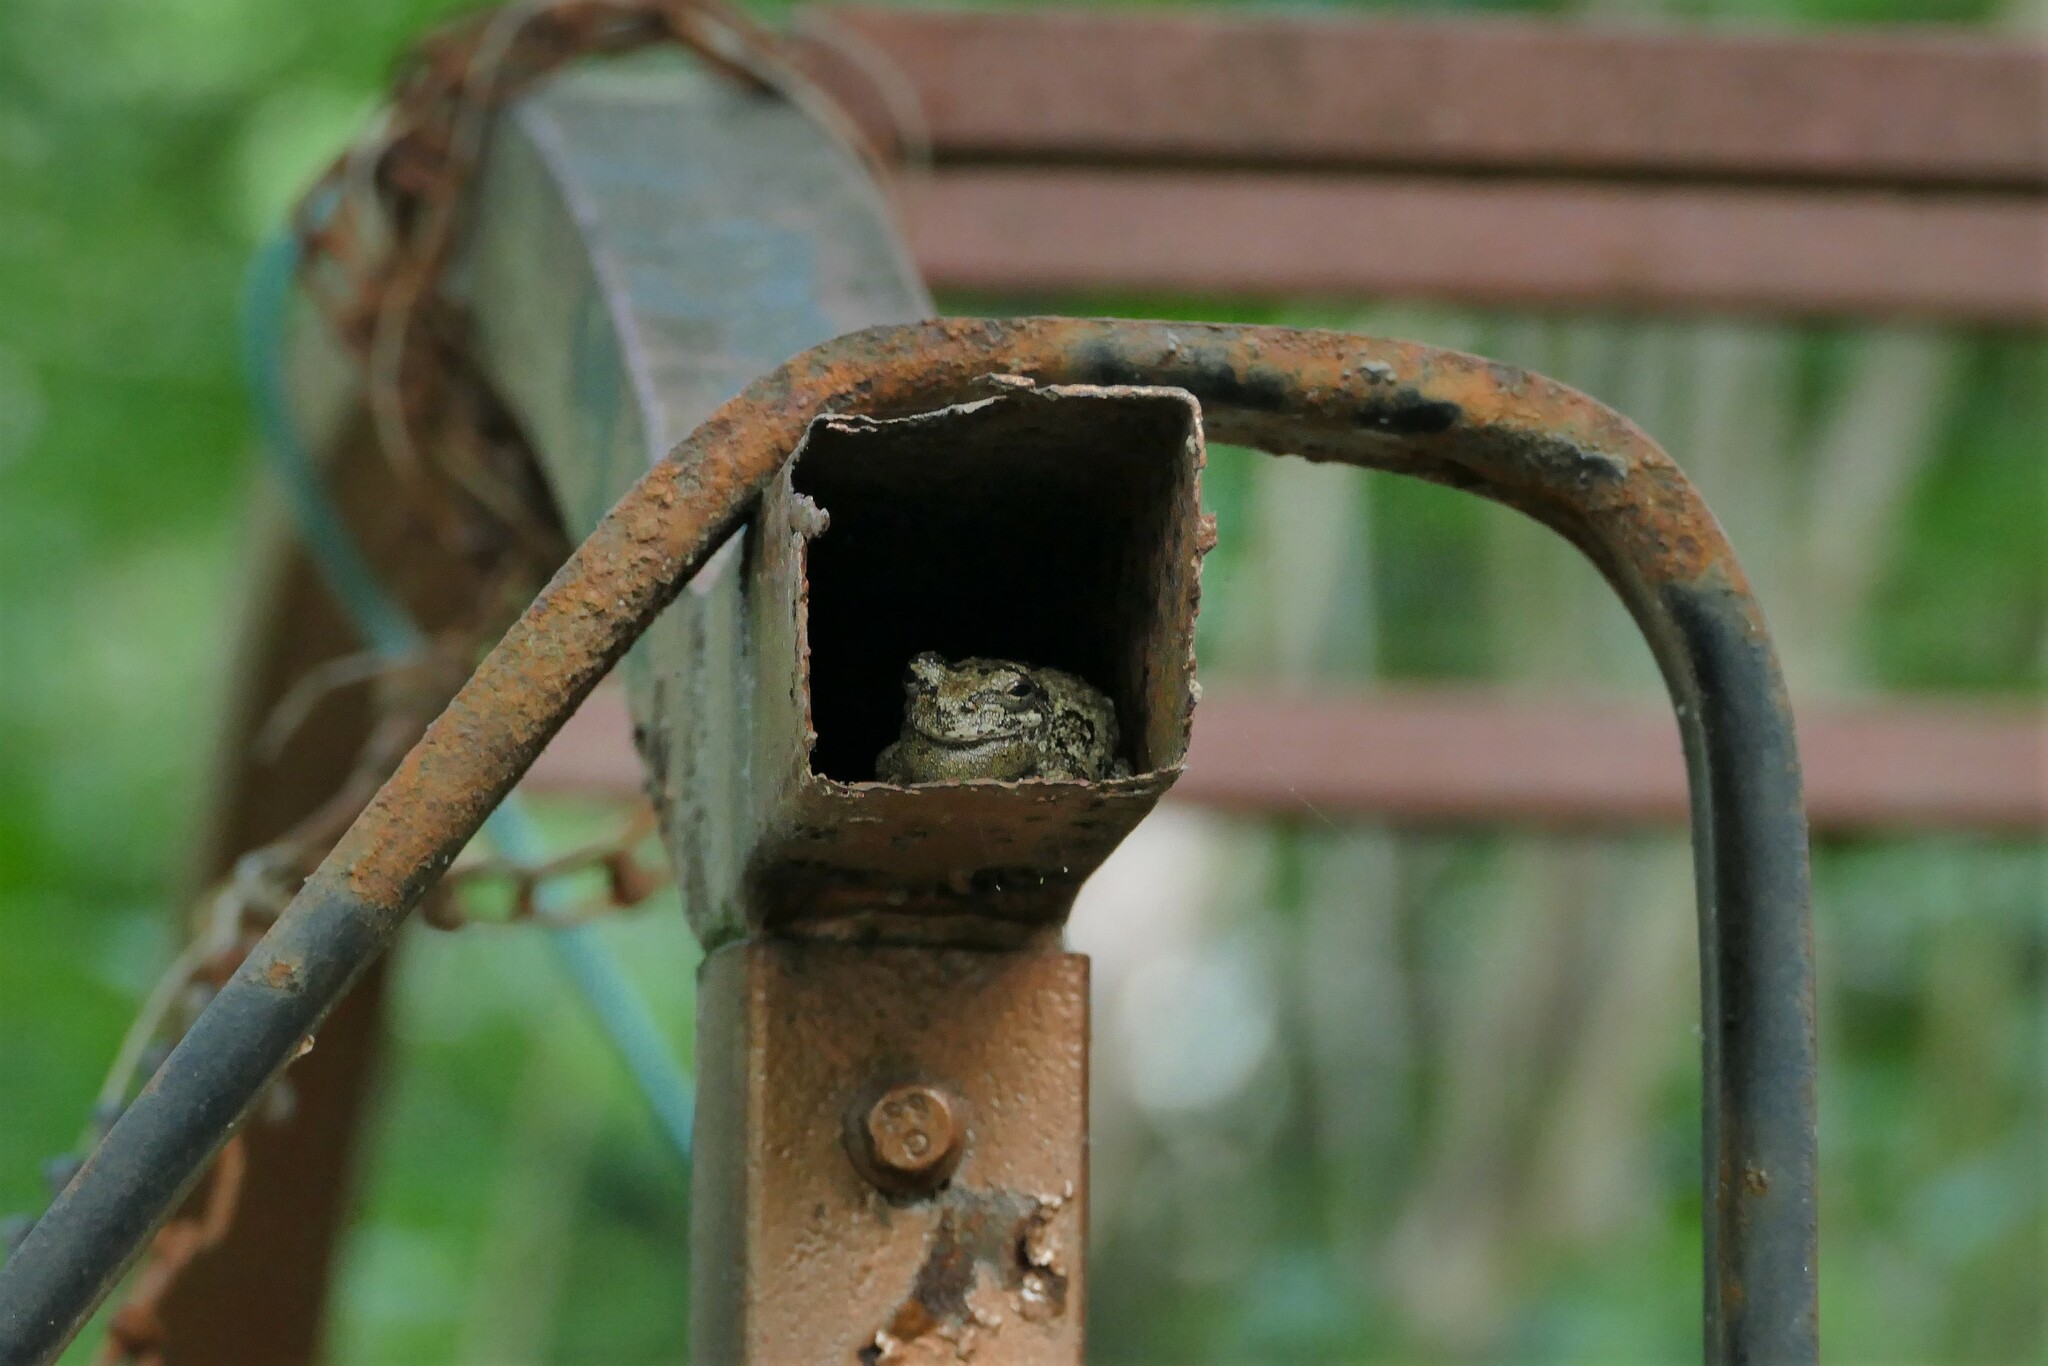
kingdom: Animalia
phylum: Chordata
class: Amphibia
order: Anura
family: Hylidae
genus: Dryophytes
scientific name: Dryophytes chrysoscelis
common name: Cope's gray treefrog
